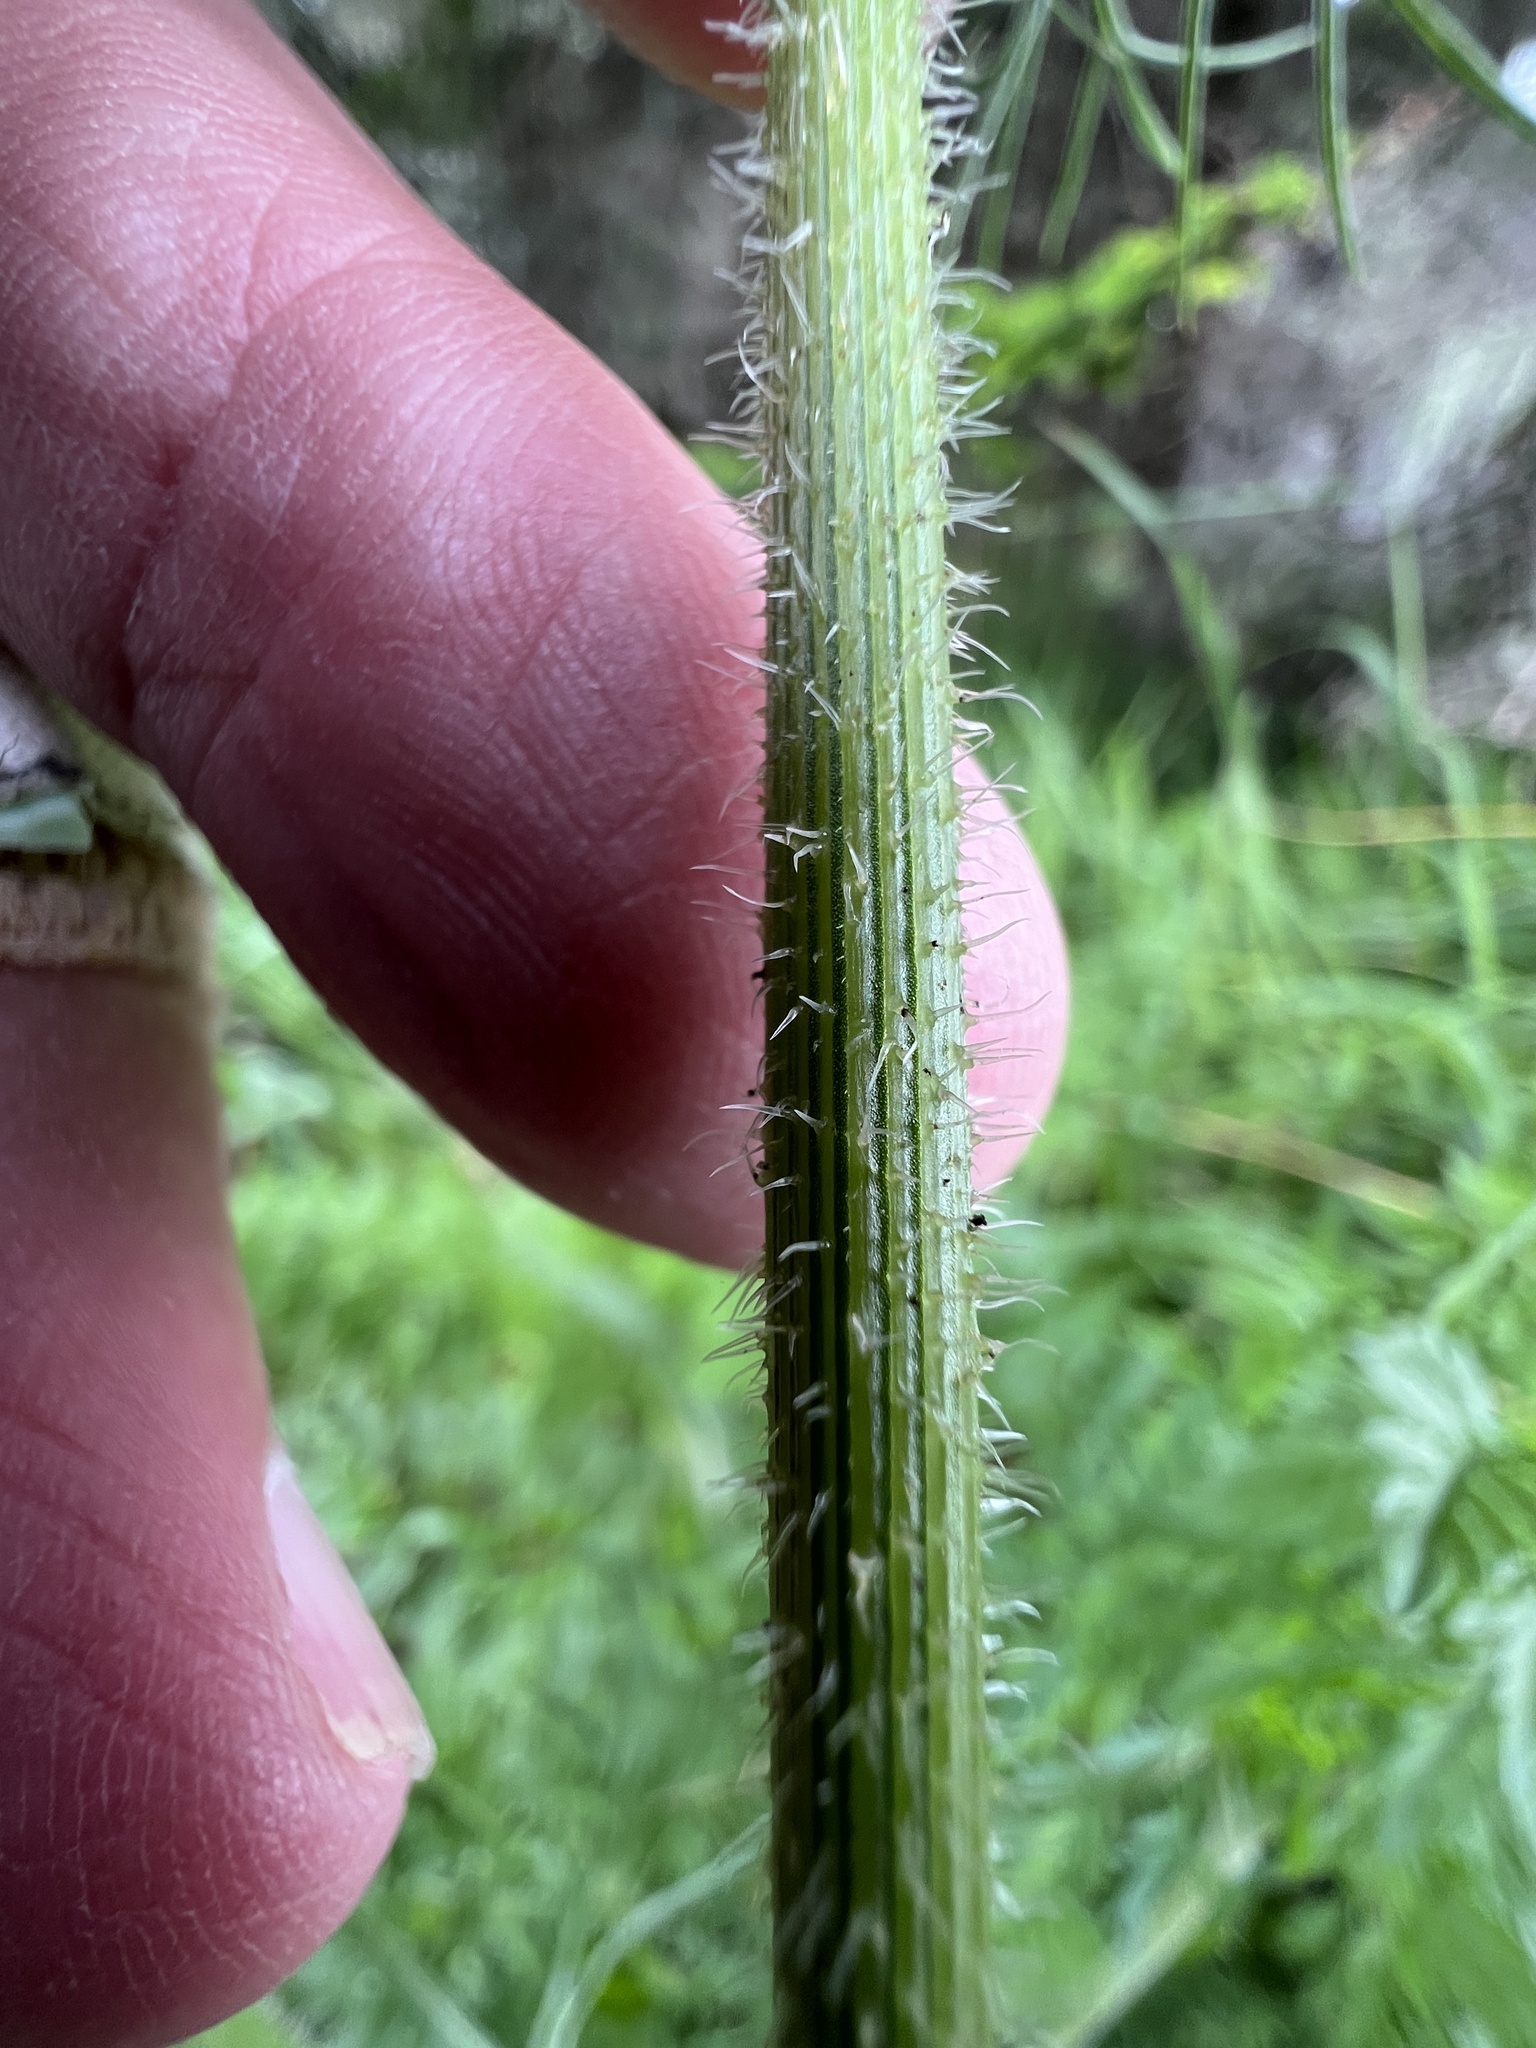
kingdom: Plantae
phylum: Tracheophyta
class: Magnoliopsida
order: Apiales
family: Apiaceae
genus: Daucus
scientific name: Daucus carota
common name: Wild carrot
